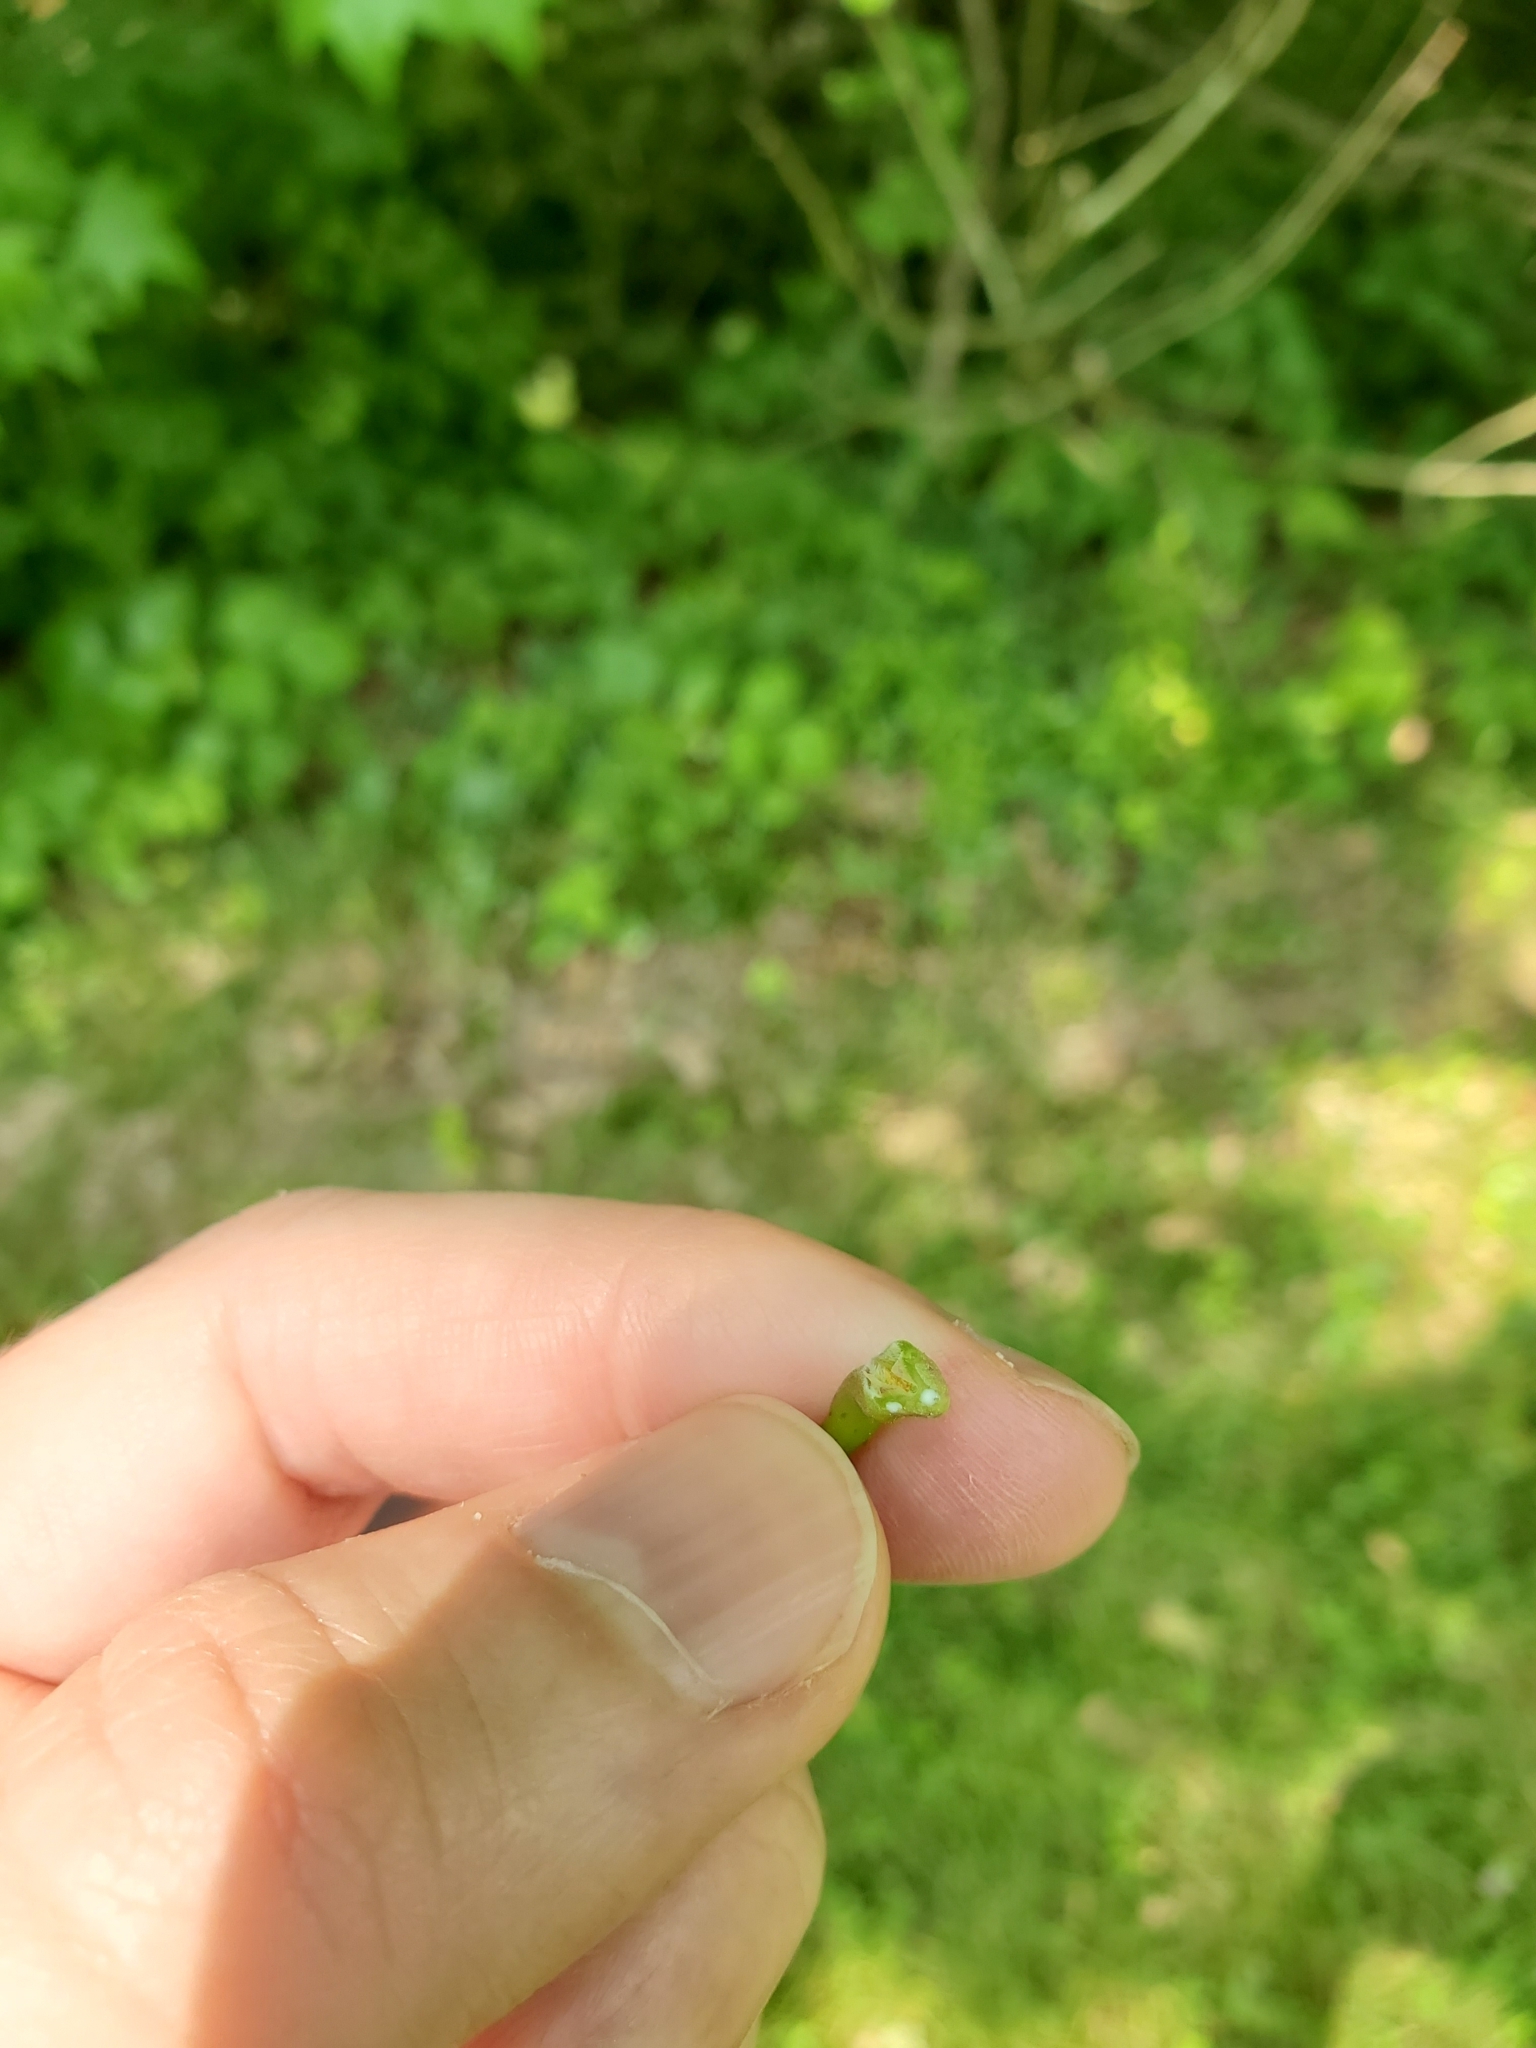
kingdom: Plantae
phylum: Tracheophyta
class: Magnoliopsida
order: Sapindales
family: Sapindaceae
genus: Acer
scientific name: Acer platanoides
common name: Norway maple
